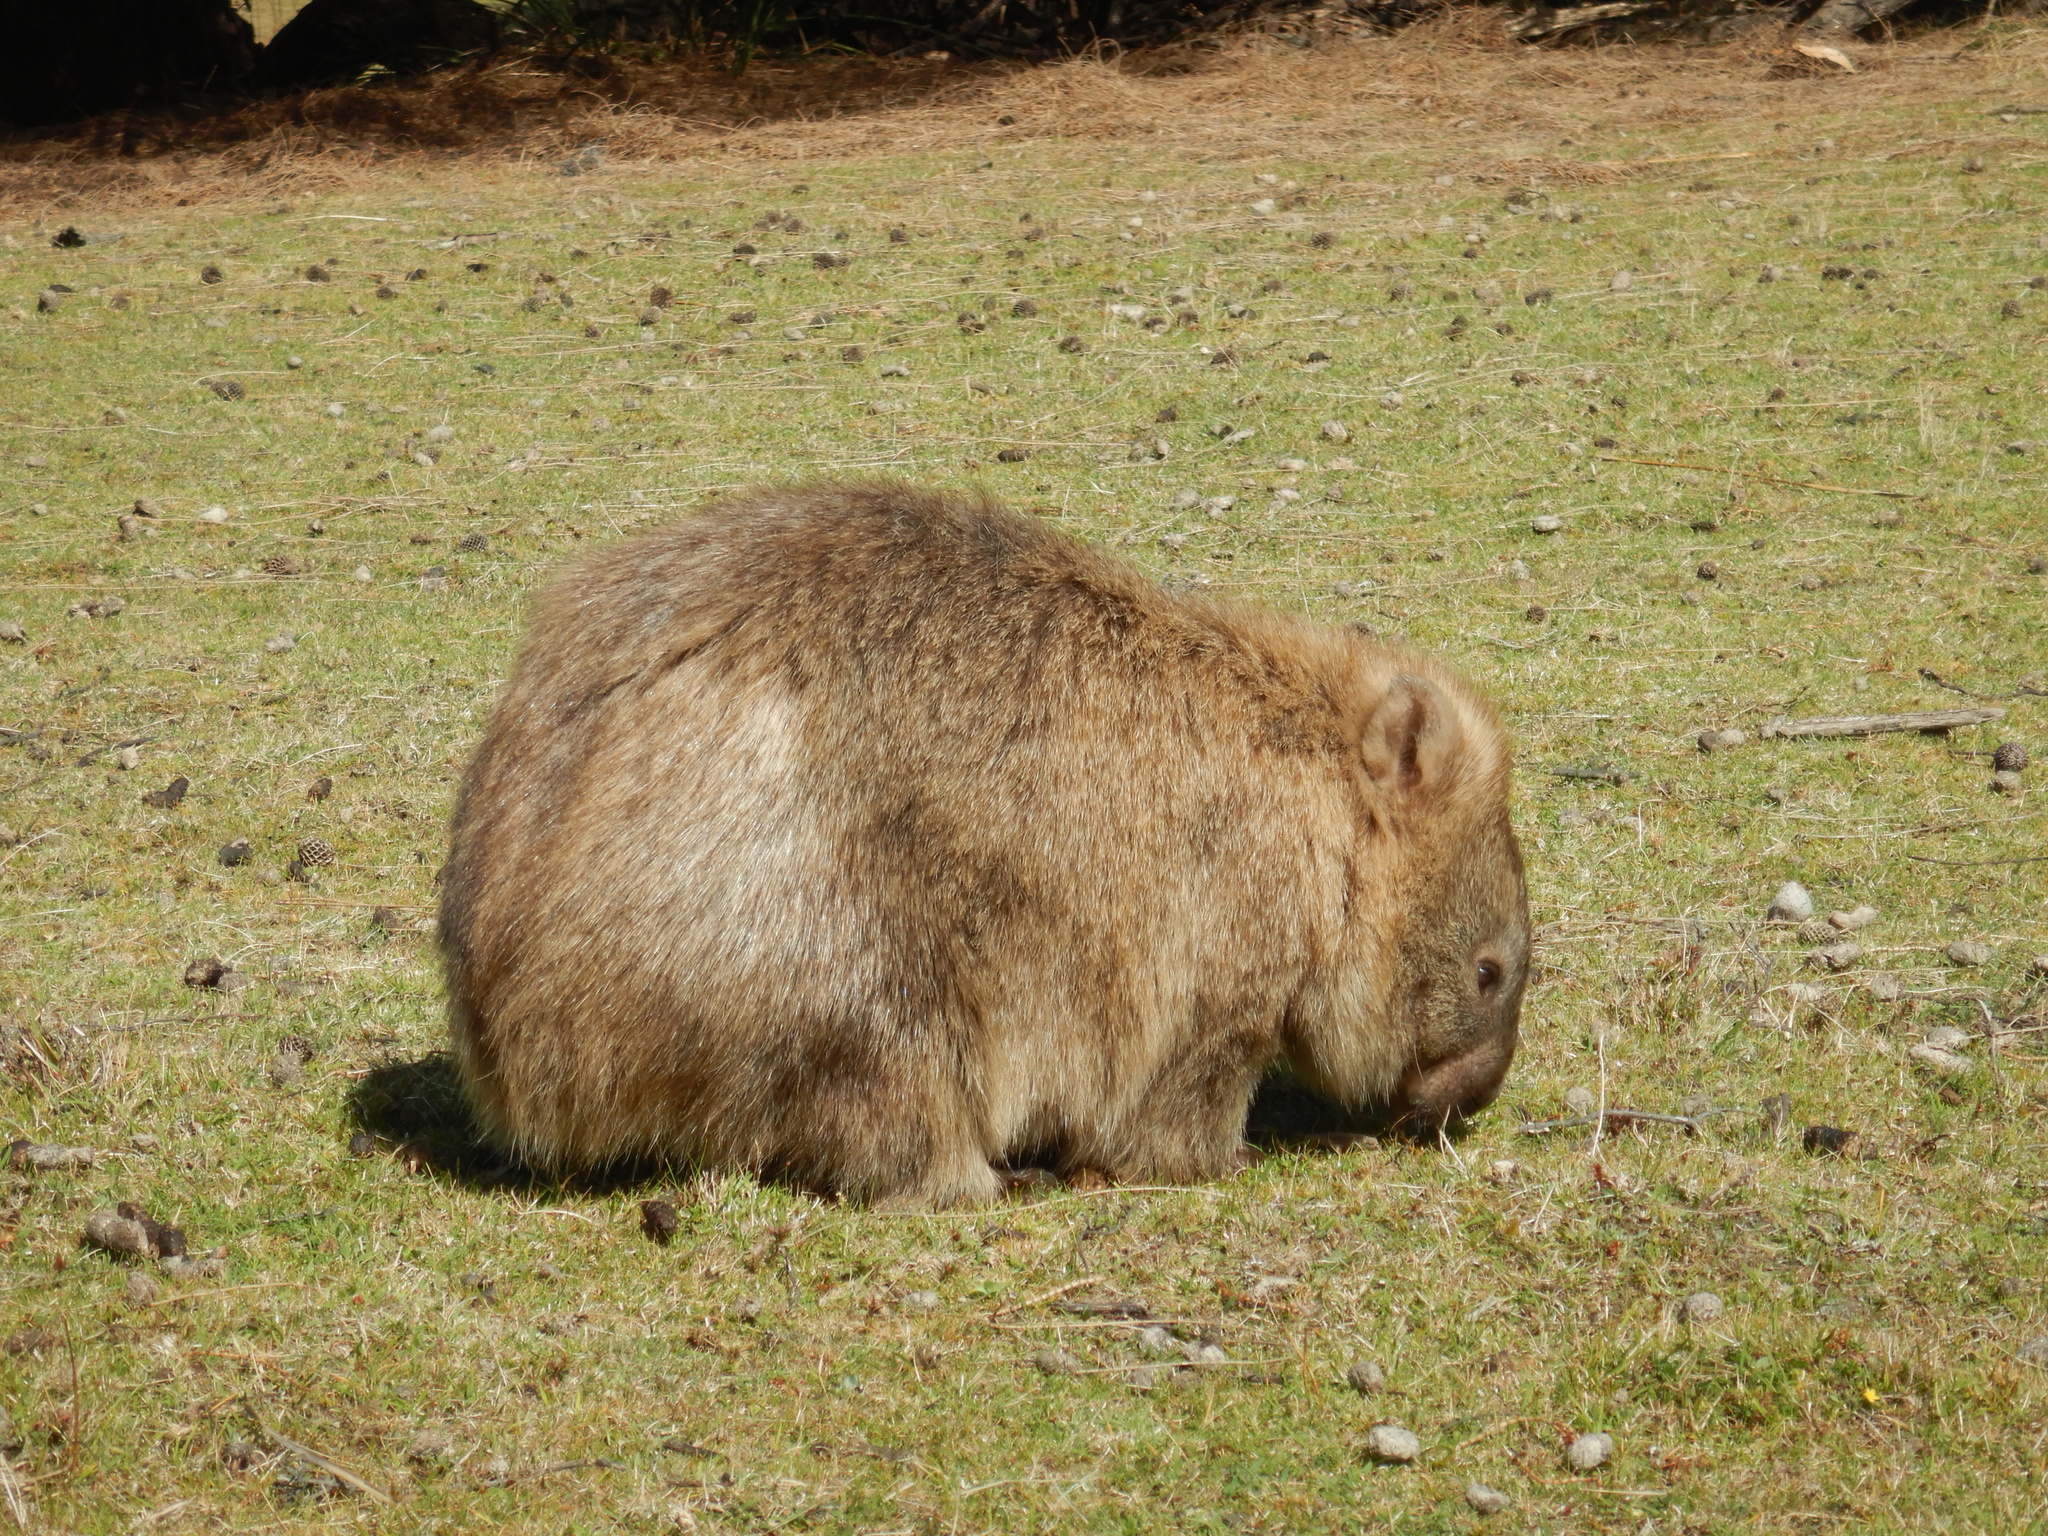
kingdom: Animalia
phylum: Chordata
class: Mammalia
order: Diprotodontia
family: Vombatidae
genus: Vombatus
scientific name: Vombatus ursinus
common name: Common wombat
